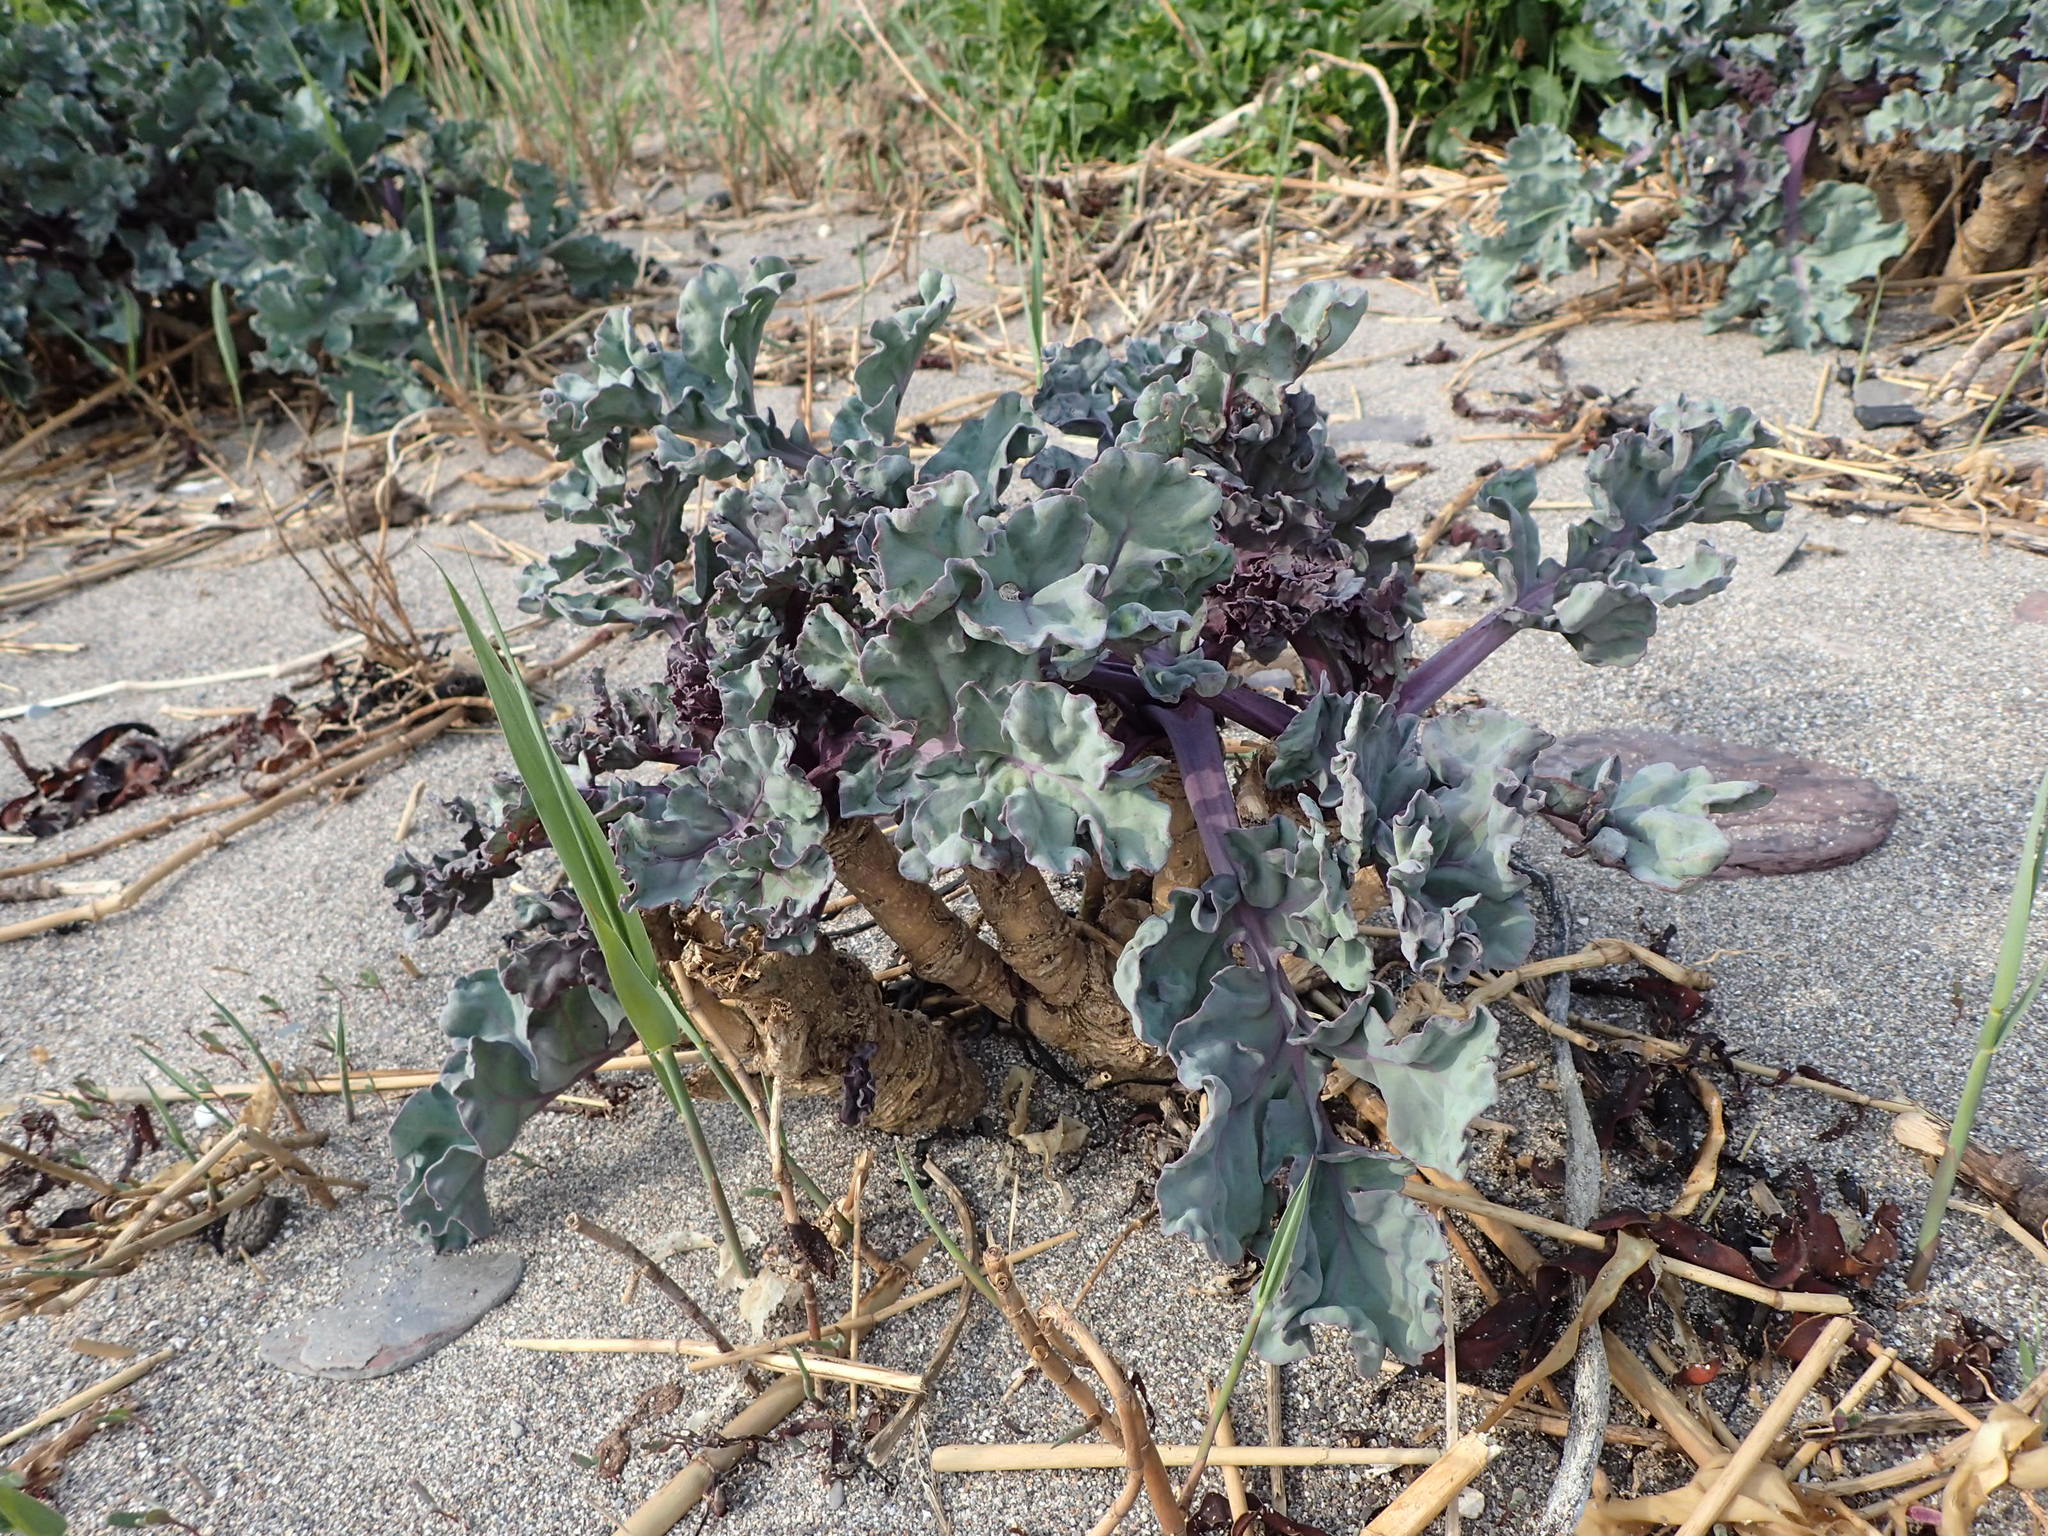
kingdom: Plantae
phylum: Tracheophyta
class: Magnoliopsida
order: Brassicales
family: Brassicaceae
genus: Crambe
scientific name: Crambe maritima
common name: Sea-kale
